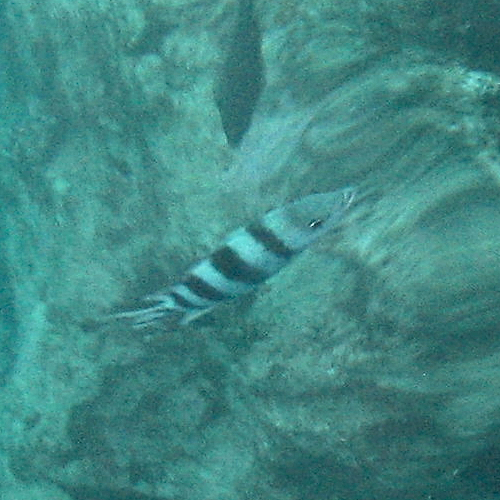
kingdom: Animalia
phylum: Chordata
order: Perciformes
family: Pomacentridae
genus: Abudefduf
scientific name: Abudefduf sexfasciatus
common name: Scissortail sergeant
